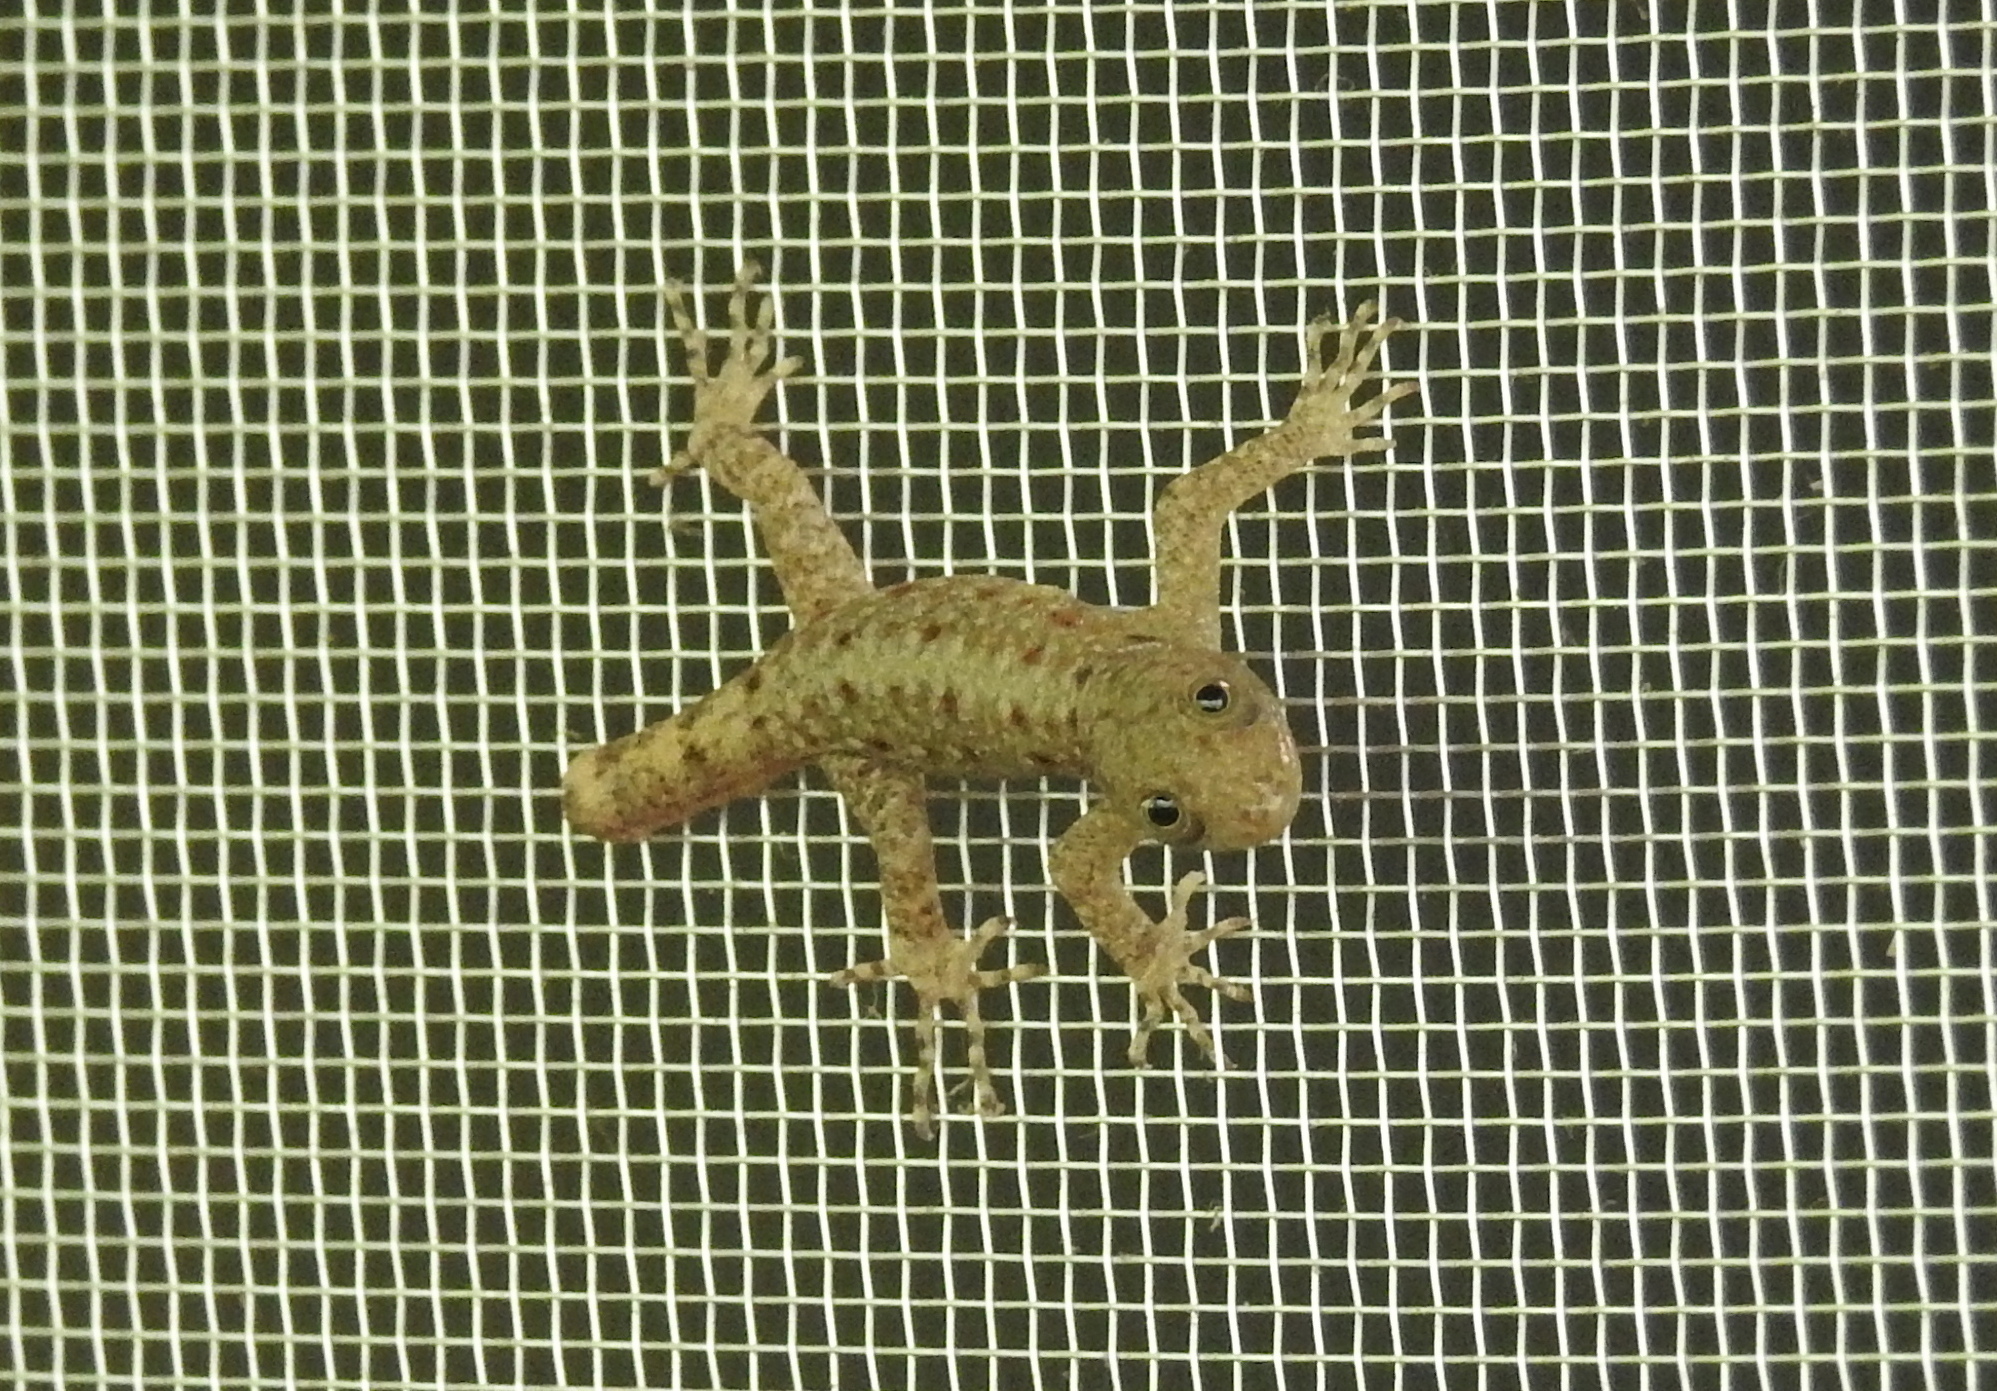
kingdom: Animalia
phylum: Chordata
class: Squamata
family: Sphaerodactylidae
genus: Gonatodes
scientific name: Gonatodes albogularis
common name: Yellow-headed gecko
